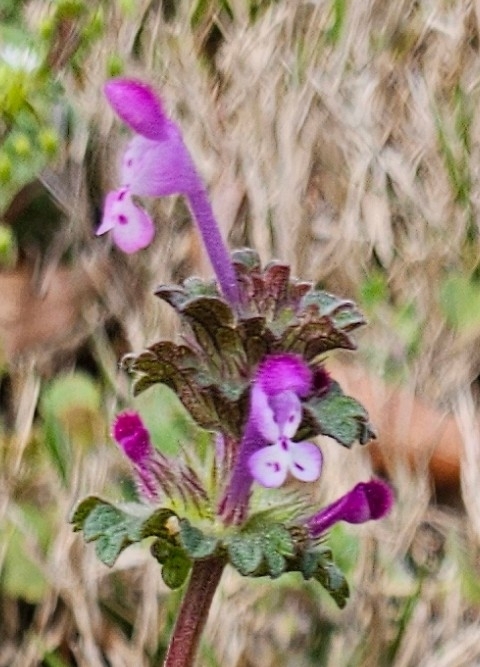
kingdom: Plantae
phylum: Tracheophyta
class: Magnoliopsida
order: Lamiales
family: Lamiaceae
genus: Lamium
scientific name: Lamium amplexicaule
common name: Henbit dead-nettle
